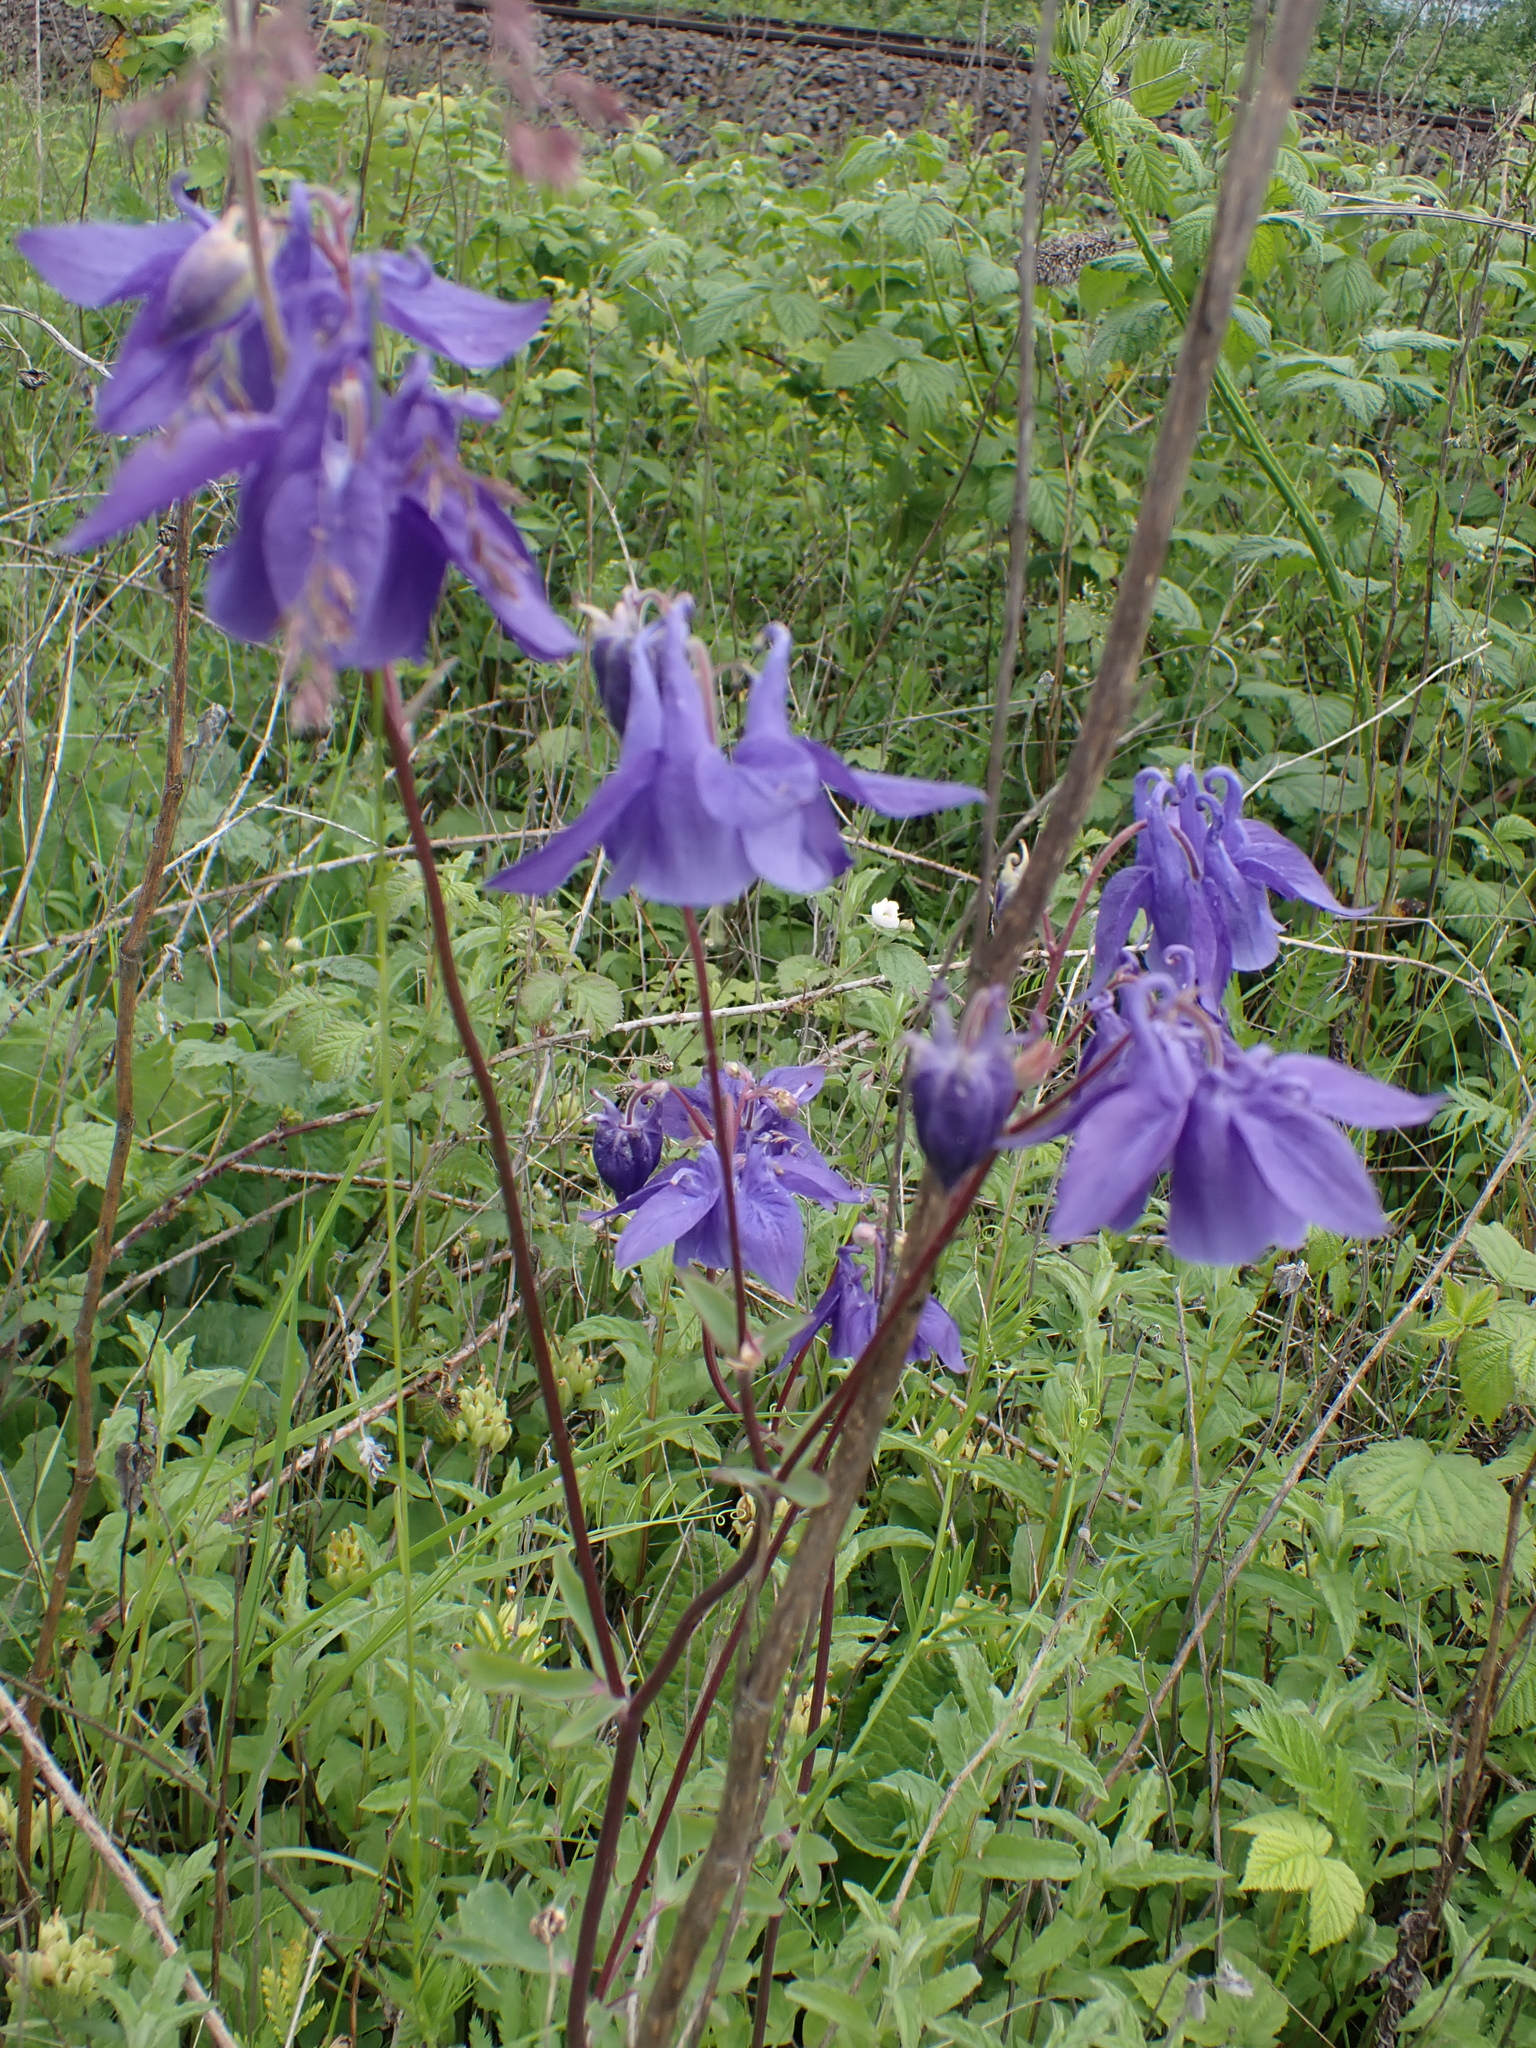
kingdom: Plantae
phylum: Tracheophyta
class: Magnoliopsida
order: Ranunculales
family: Ranunculaceae
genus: Aquilegia
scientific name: Aquilegia vulgaris
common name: Columbine
